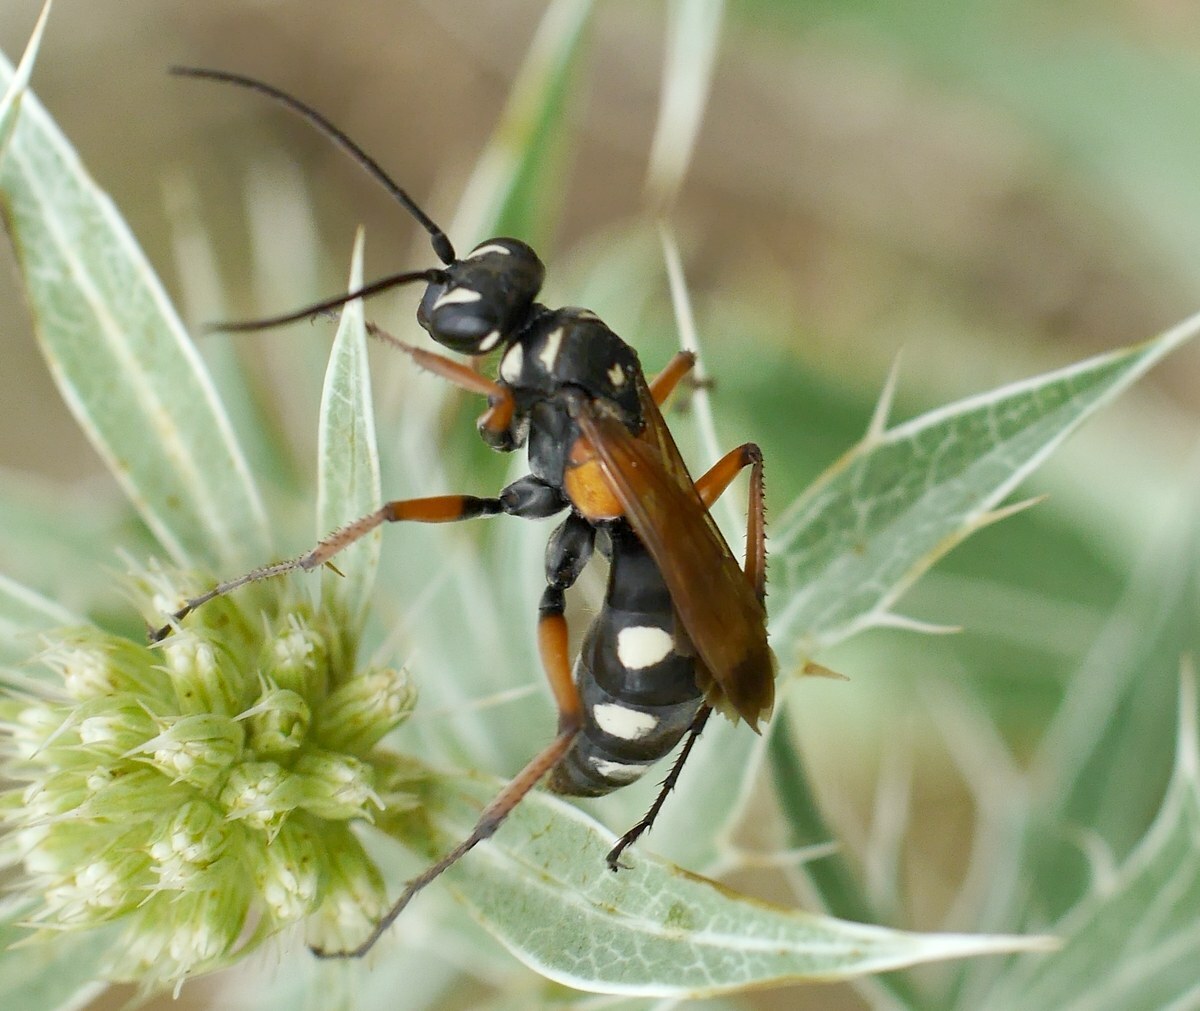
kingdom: Animalia
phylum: Arthropoda
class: Insecta
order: Hymenoptera
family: Pompilidae
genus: Cryptocheilus
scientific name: Cryptocheilus fabricii
